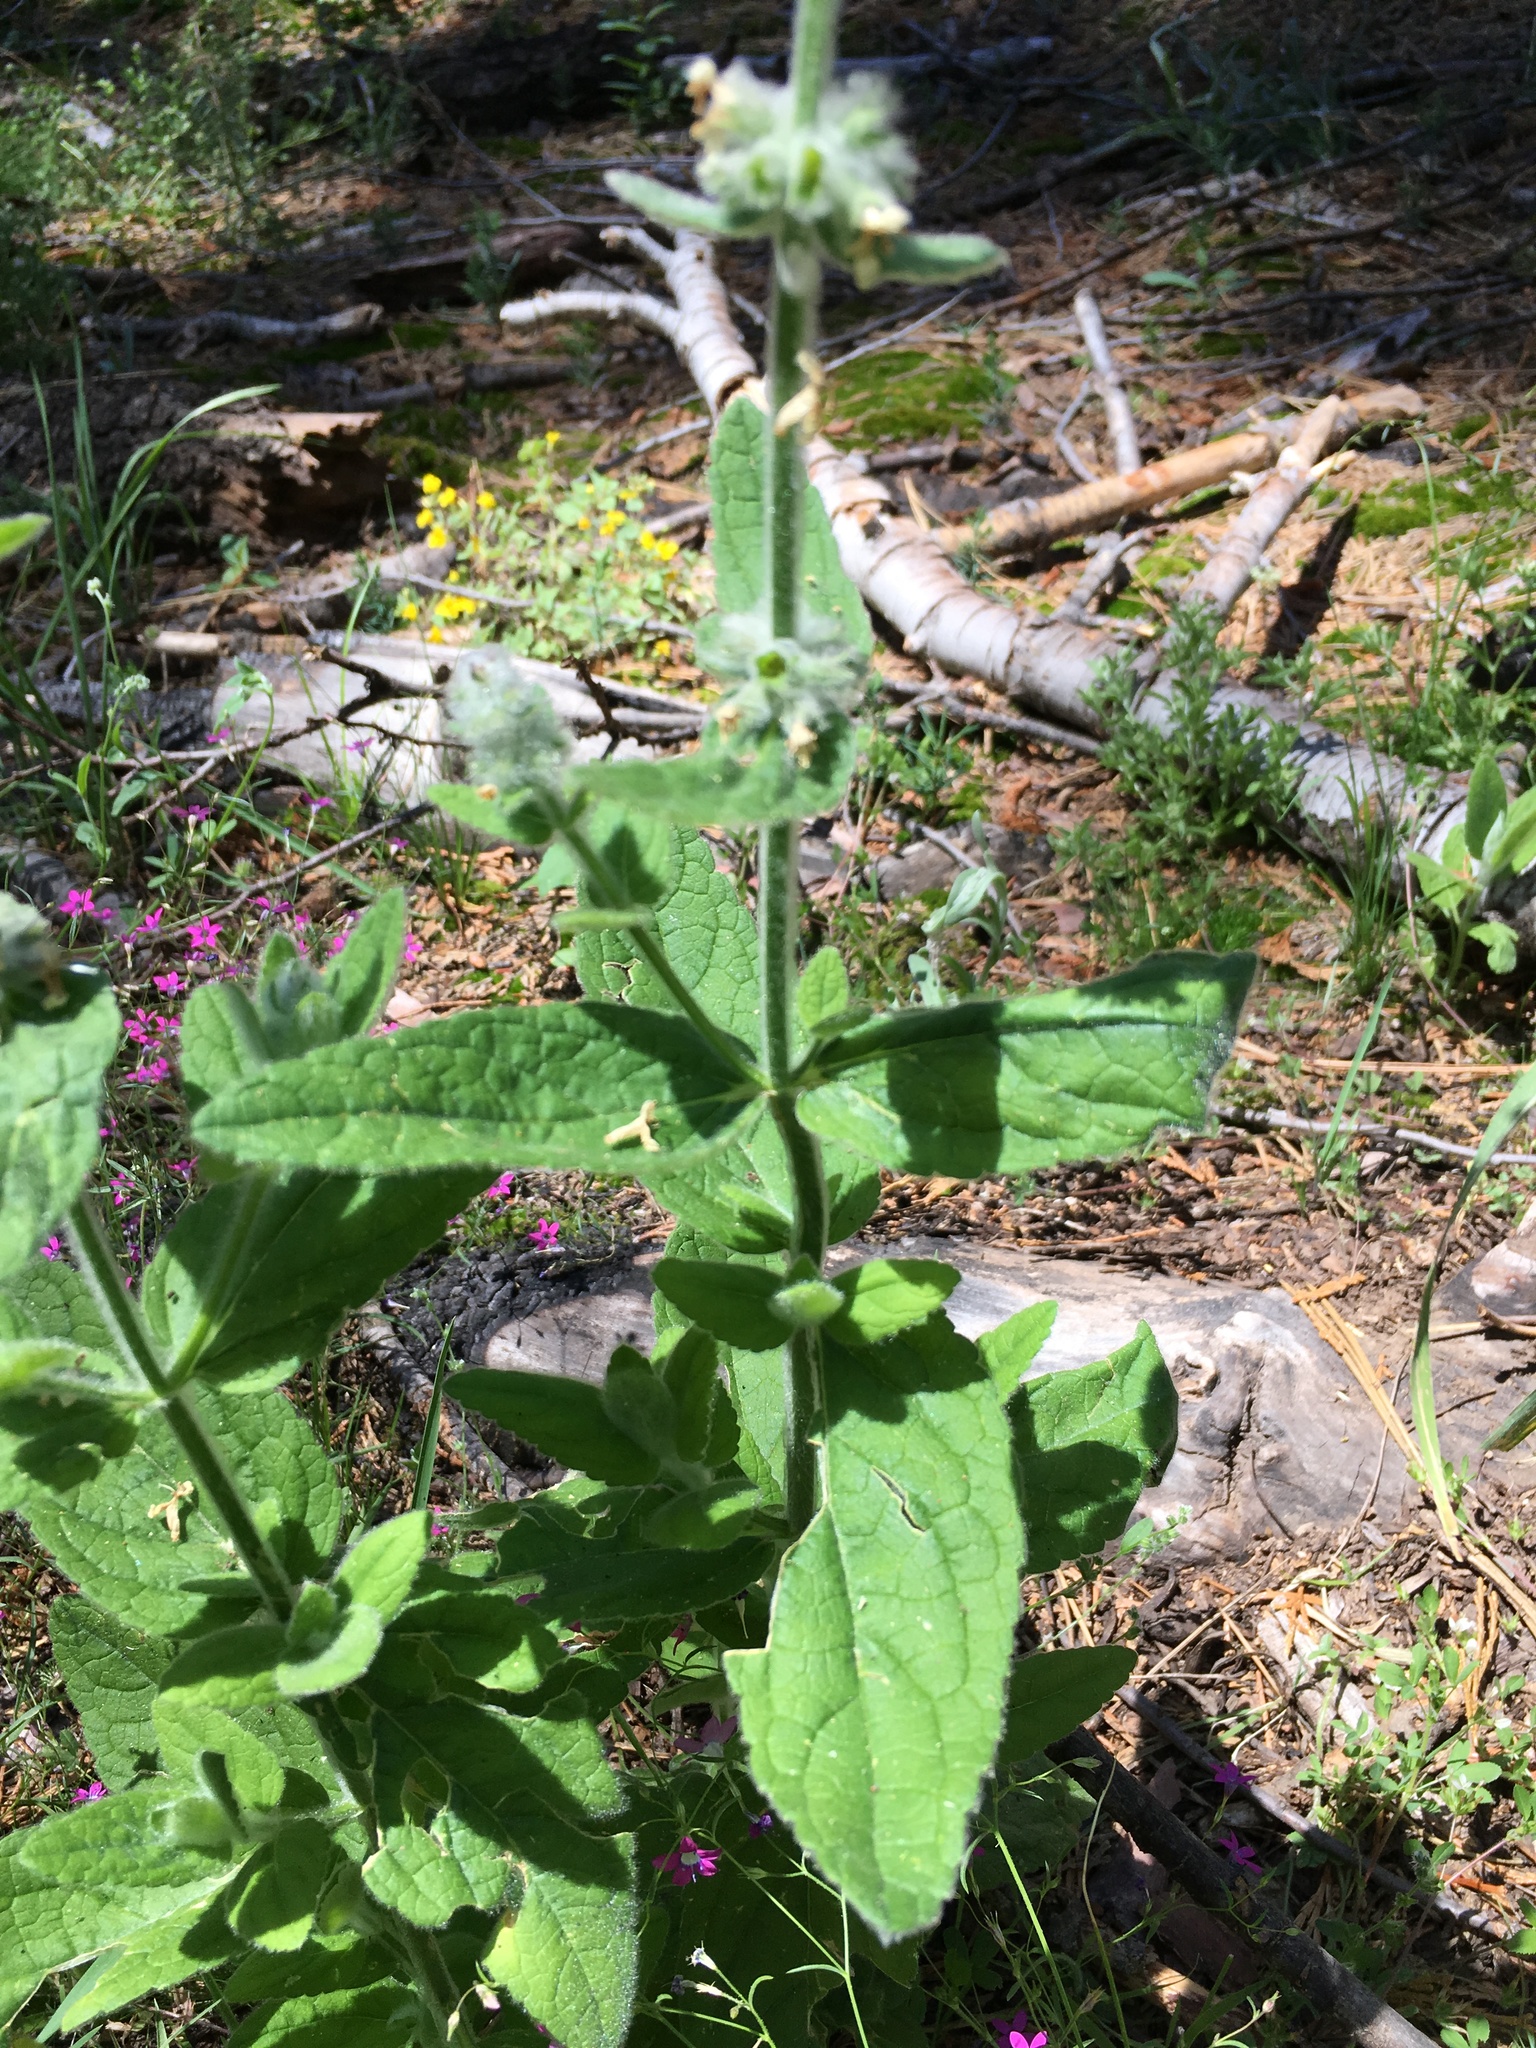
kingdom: Plantae
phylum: Tracheophyta
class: Magnoliopsida
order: Lamiales
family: Lamiaceae
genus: Stachys
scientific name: Stachys albens
